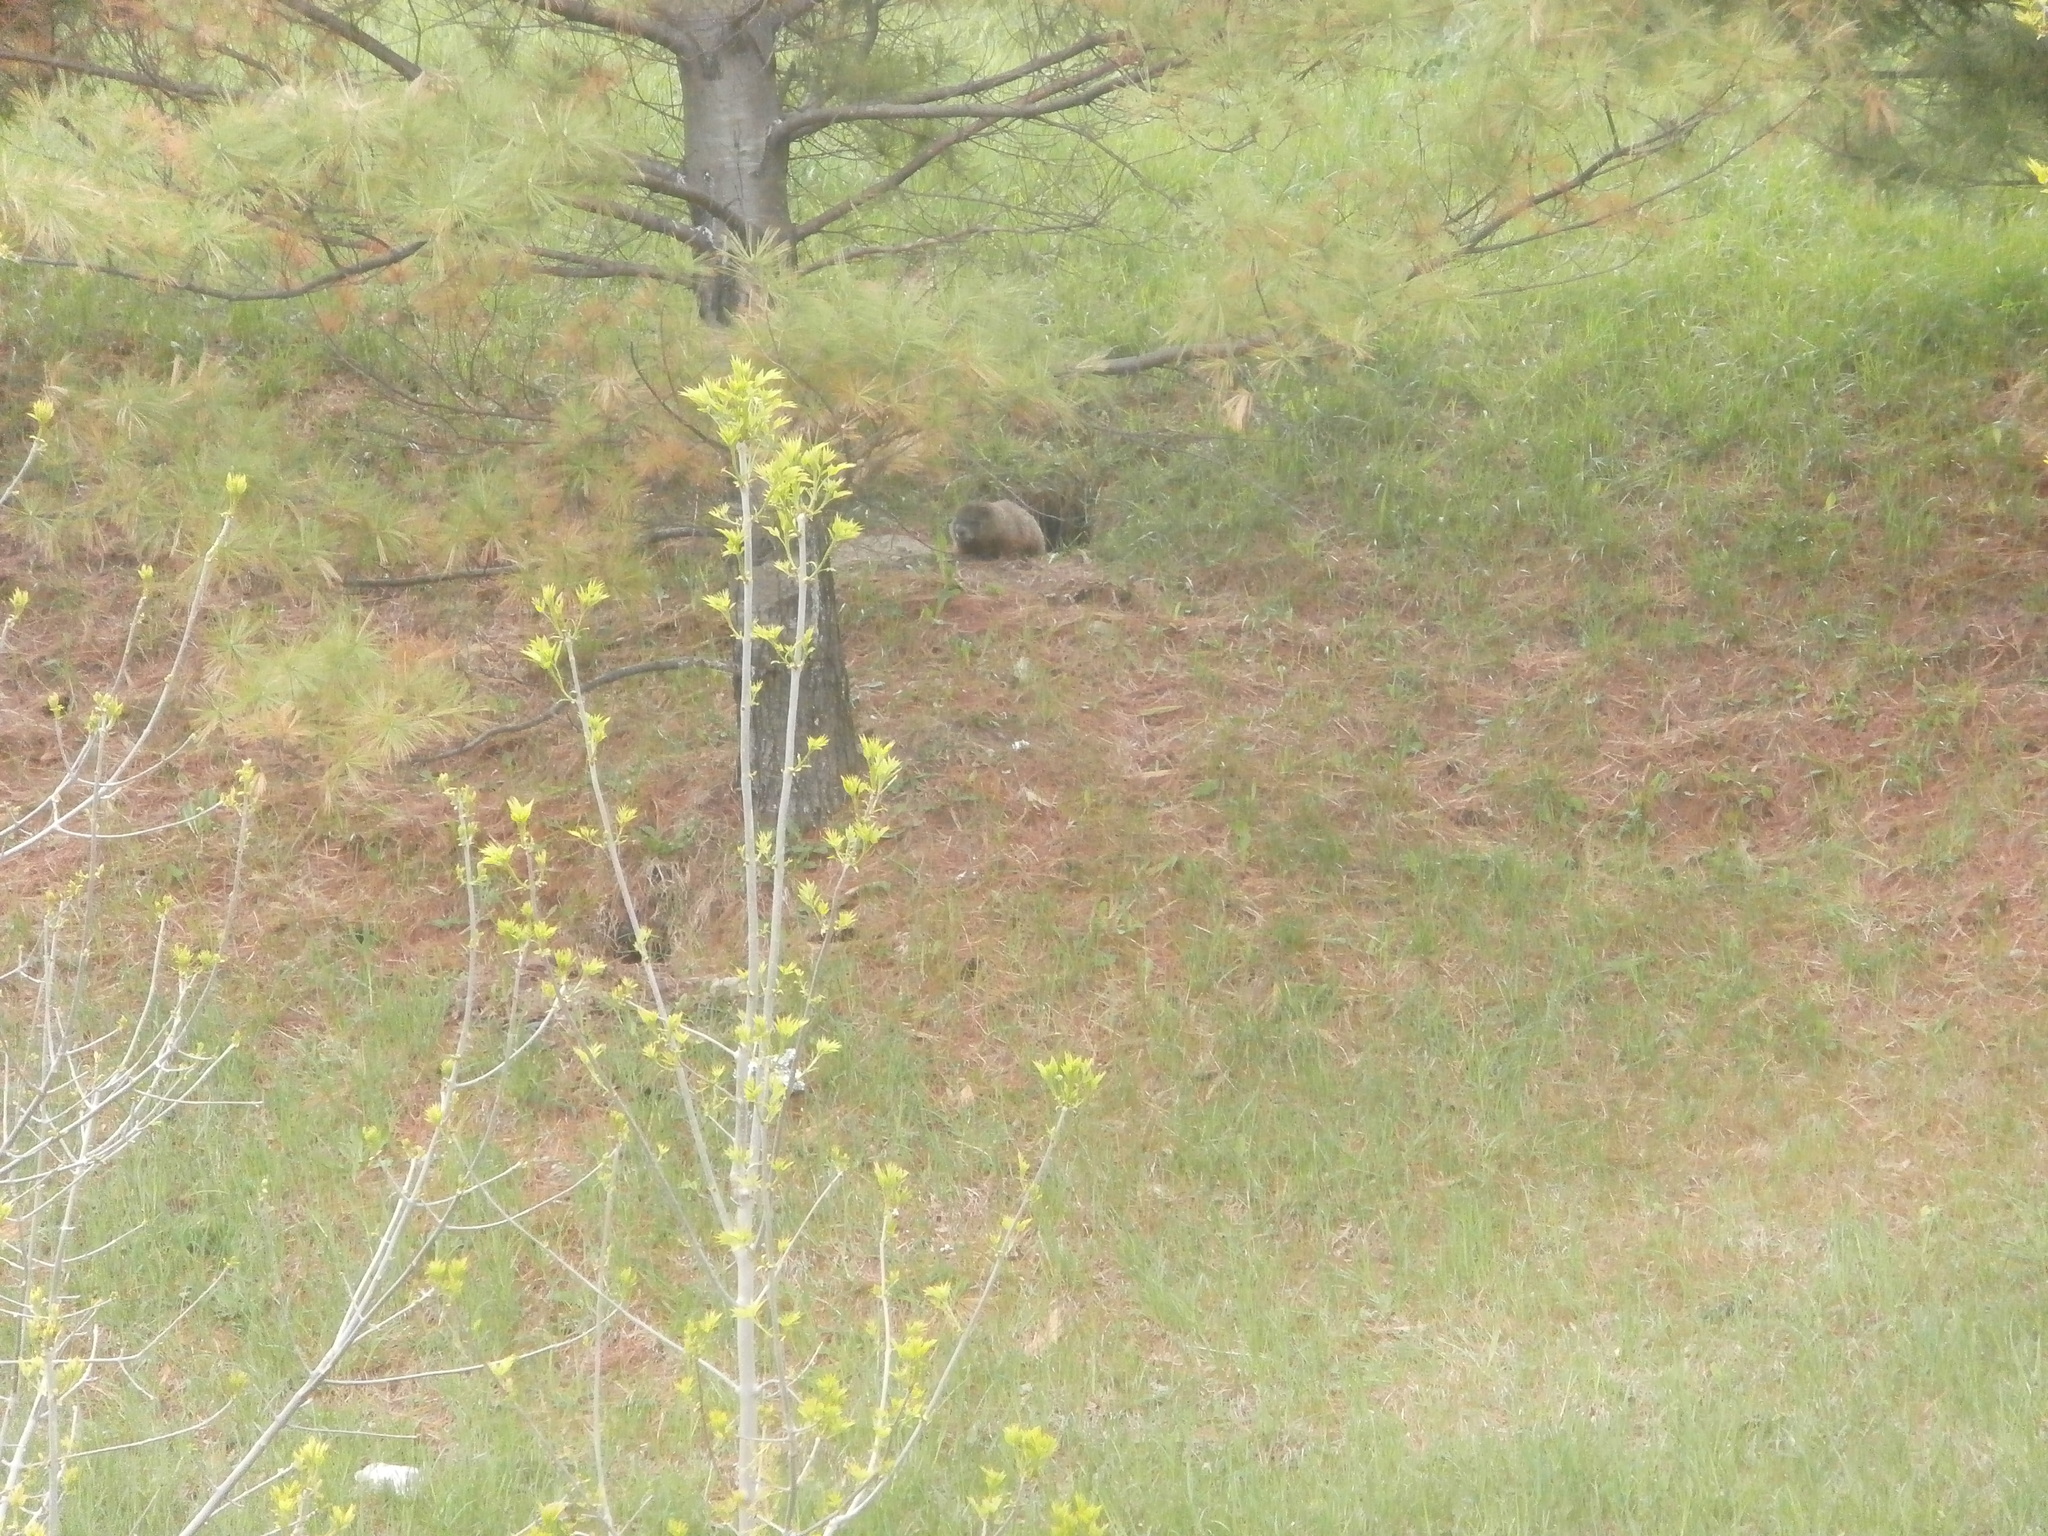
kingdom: Animalia
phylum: Chordata
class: Mammalia
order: Rodentia
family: Sciuridae
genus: Marmota
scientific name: Marmota monax
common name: Groundhog
